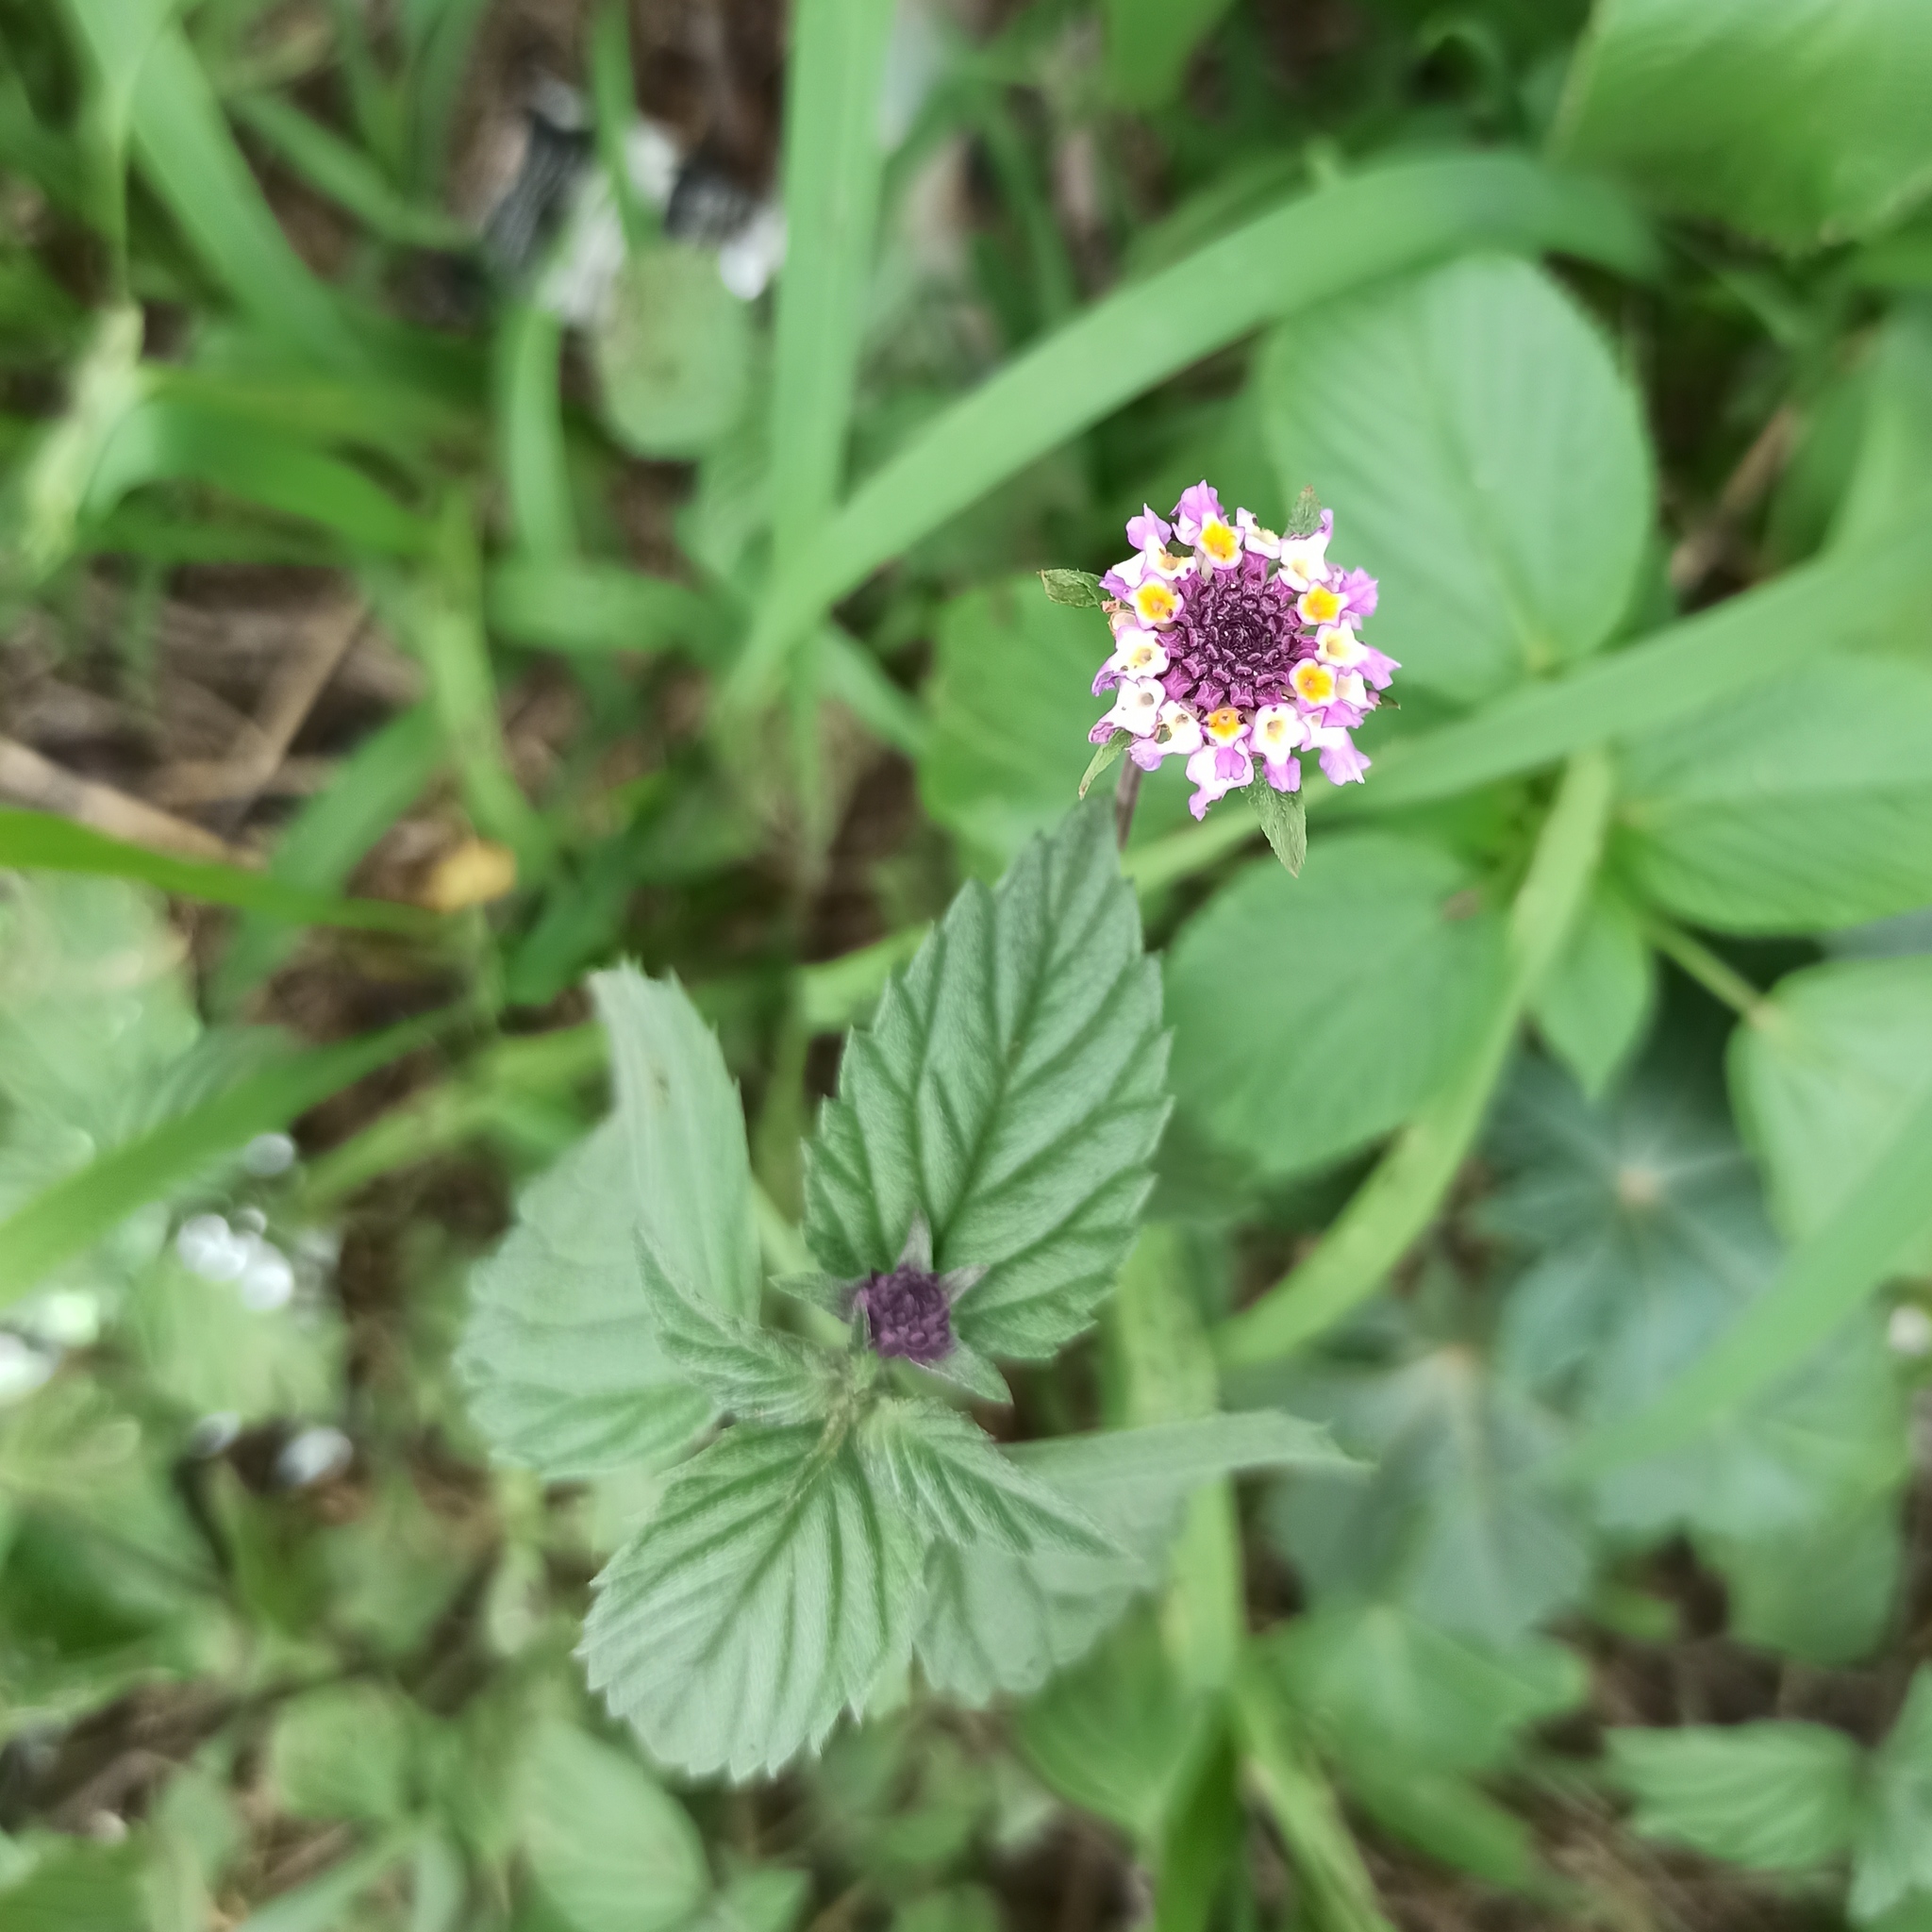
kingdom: Plantae
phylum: Tracheophyta
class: Magnoliopsida
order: Lamiales
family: Verbenaceae
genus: Phyla
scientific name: Phyla nodiflora
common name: Frogfruit
